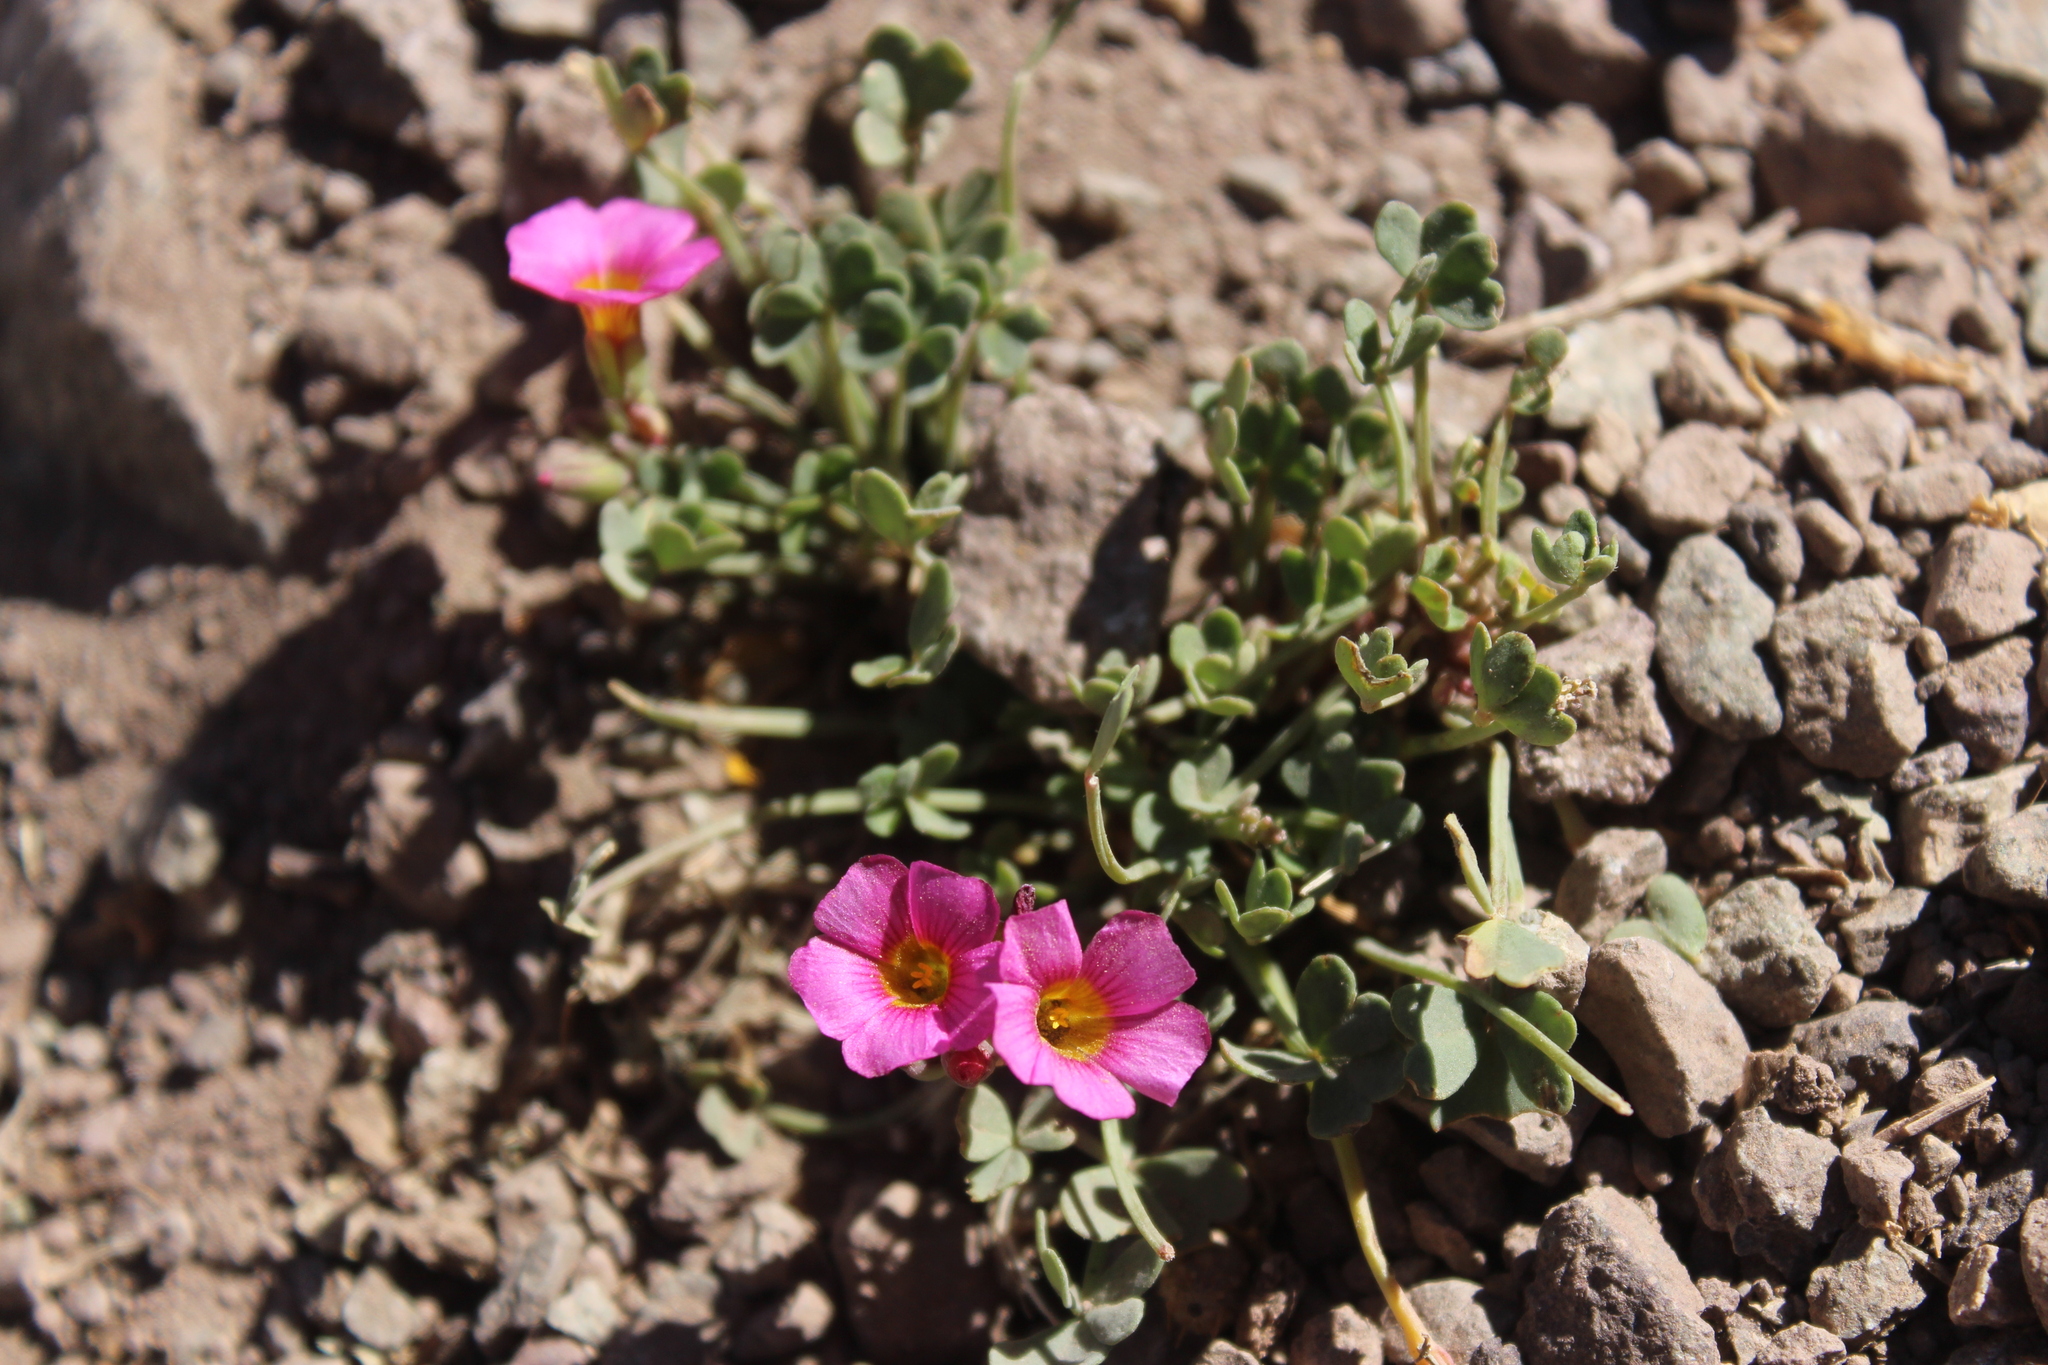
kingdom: Plantae
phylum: Tracheophyta
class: Magnoliopsida
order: Oxalidales
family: Oxalidaceae
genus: Oxalis
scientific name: Oxalis squamata
